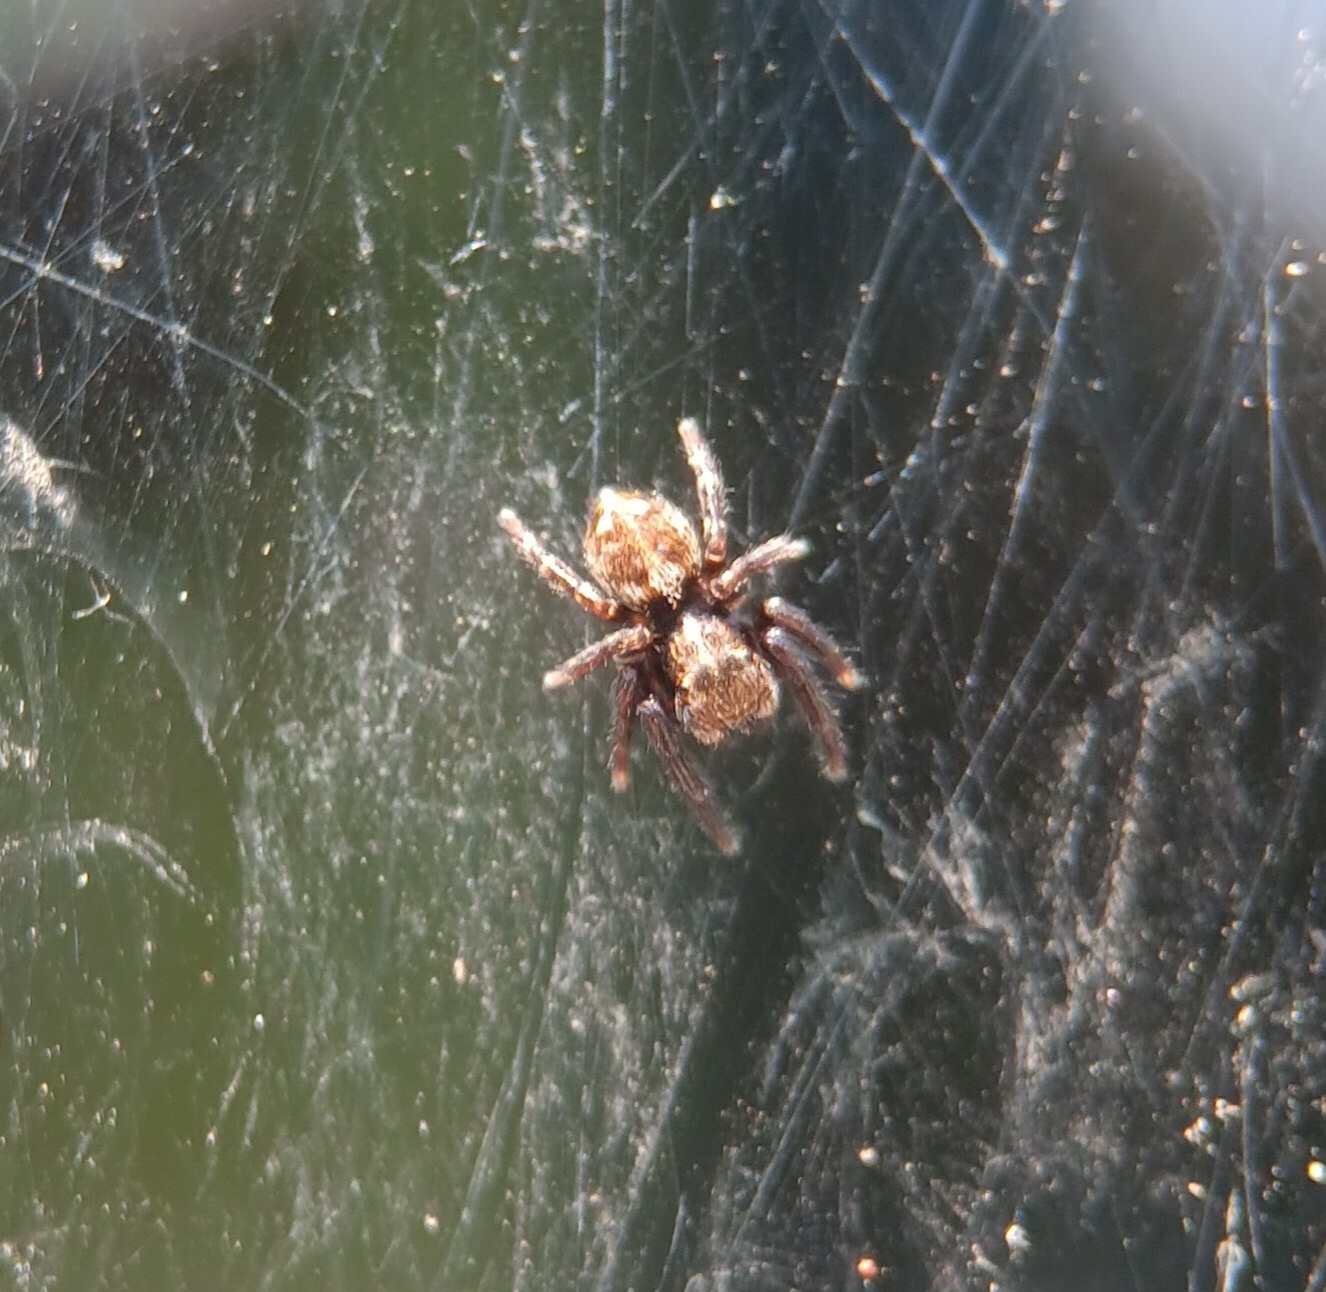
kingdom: Animalia
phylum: Arthropoda
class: Arachnida
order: Araneae
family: Salticidae
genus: Pseudeuophrys
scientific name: Pseudeuophrys erratica
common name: Jumping spider
